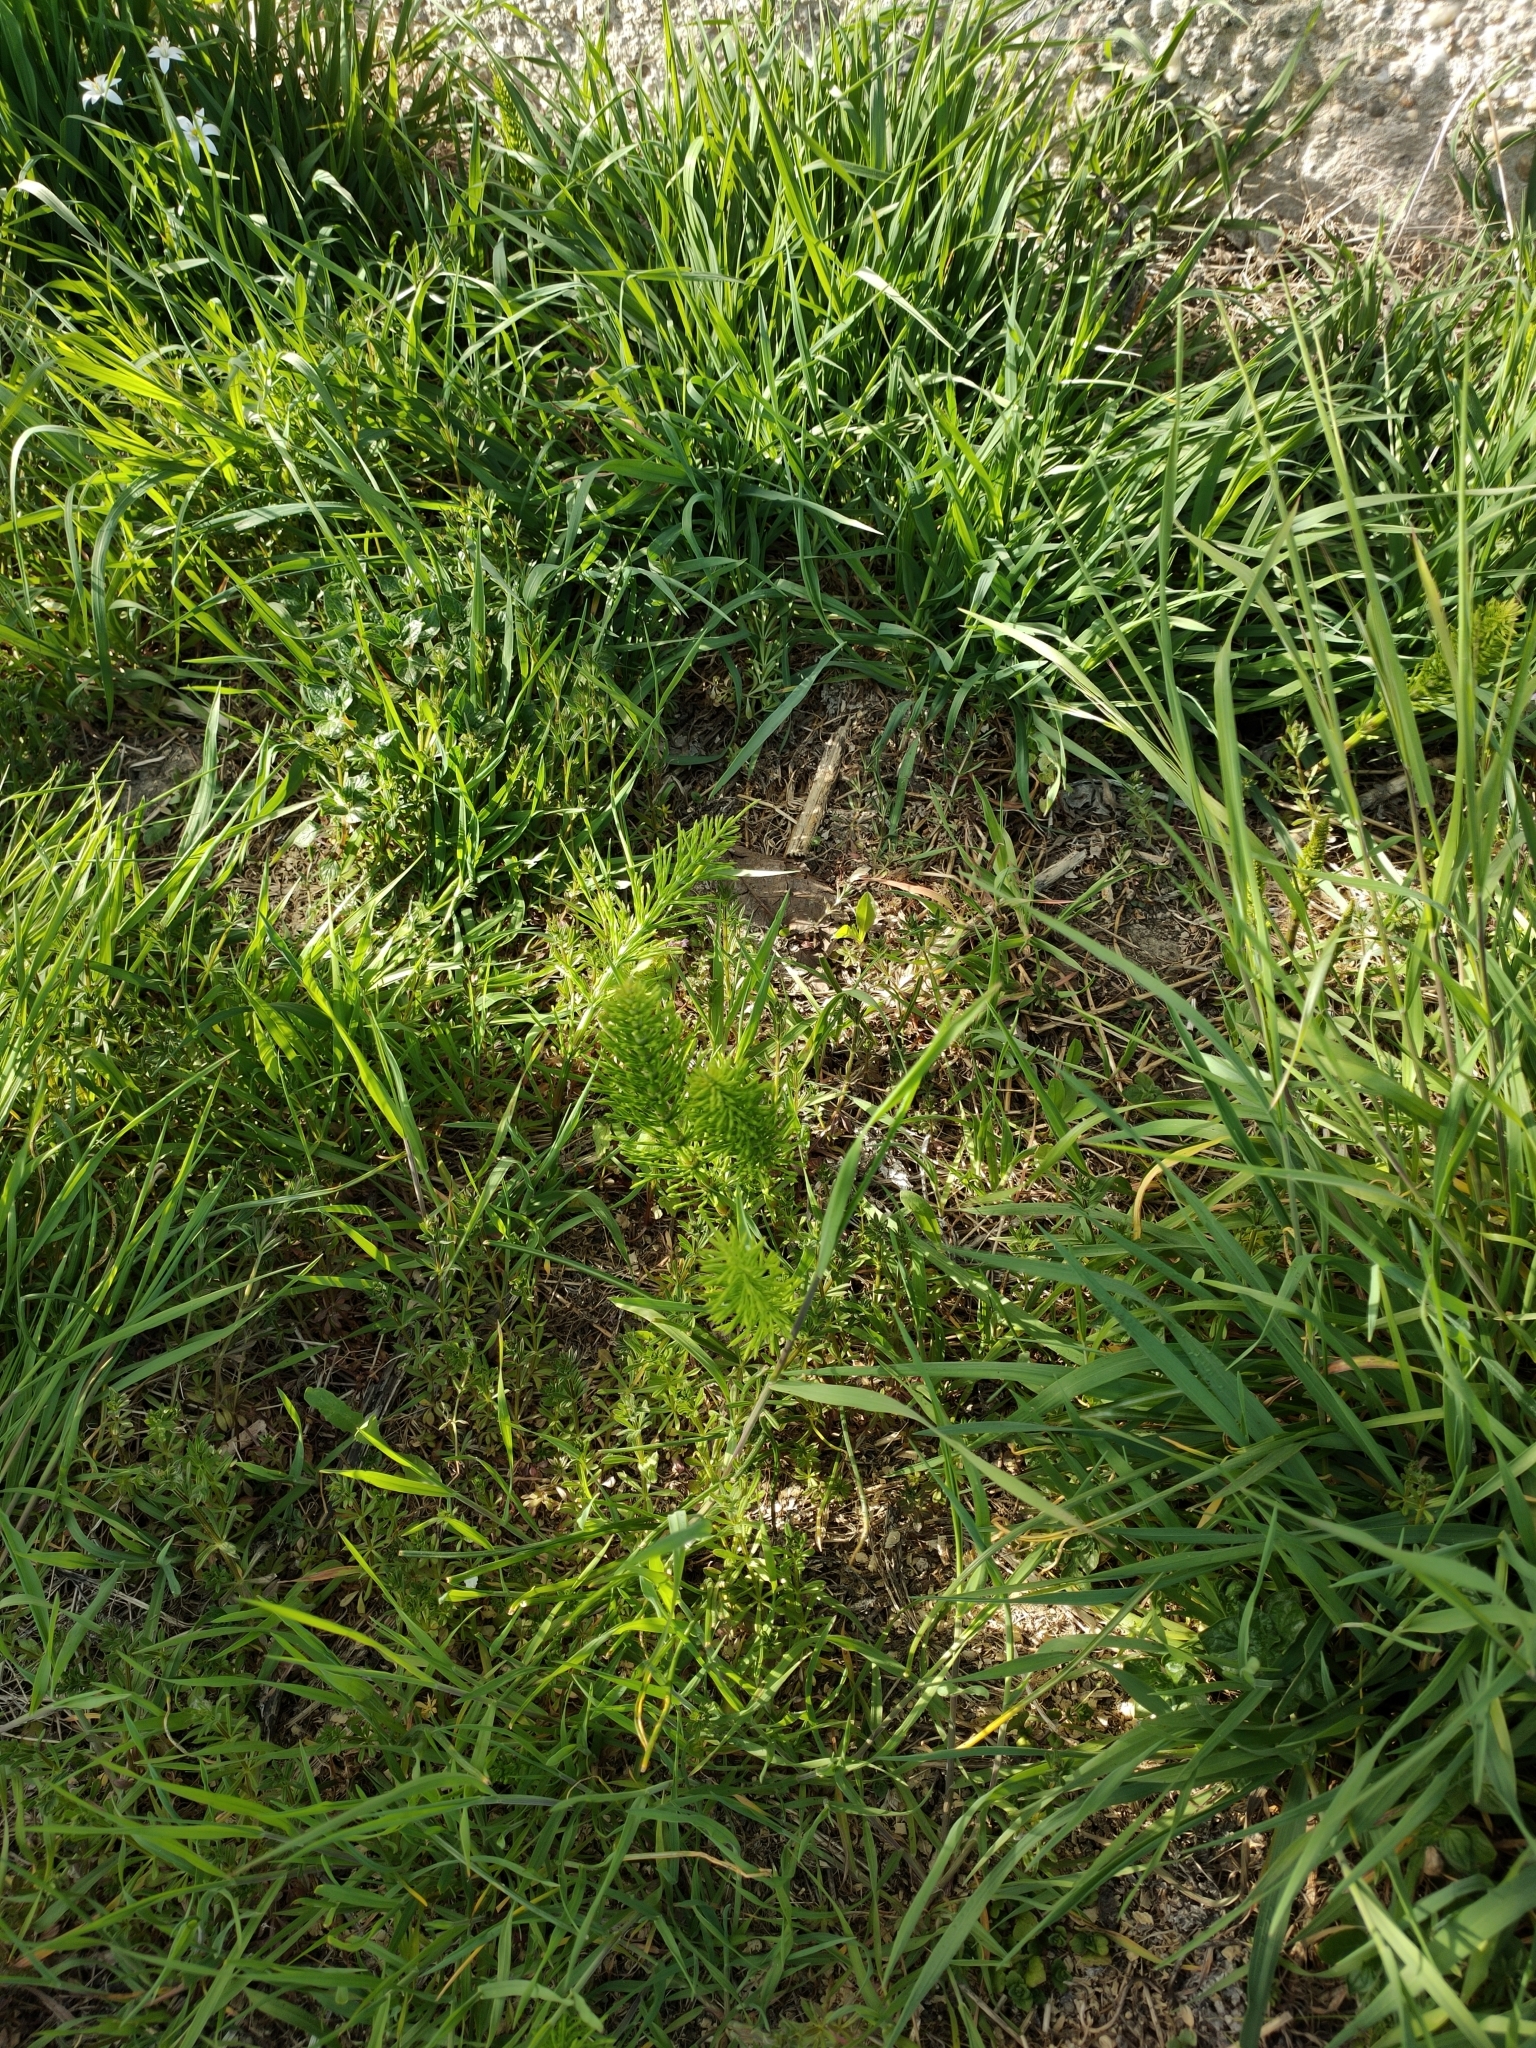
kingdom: Plantae
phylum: Tracheophyta
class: Polypodiopsida
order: Equisetales
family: Equisetaceae
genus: Equisetum
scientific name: Equisetum arvense
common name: Field horsetail
